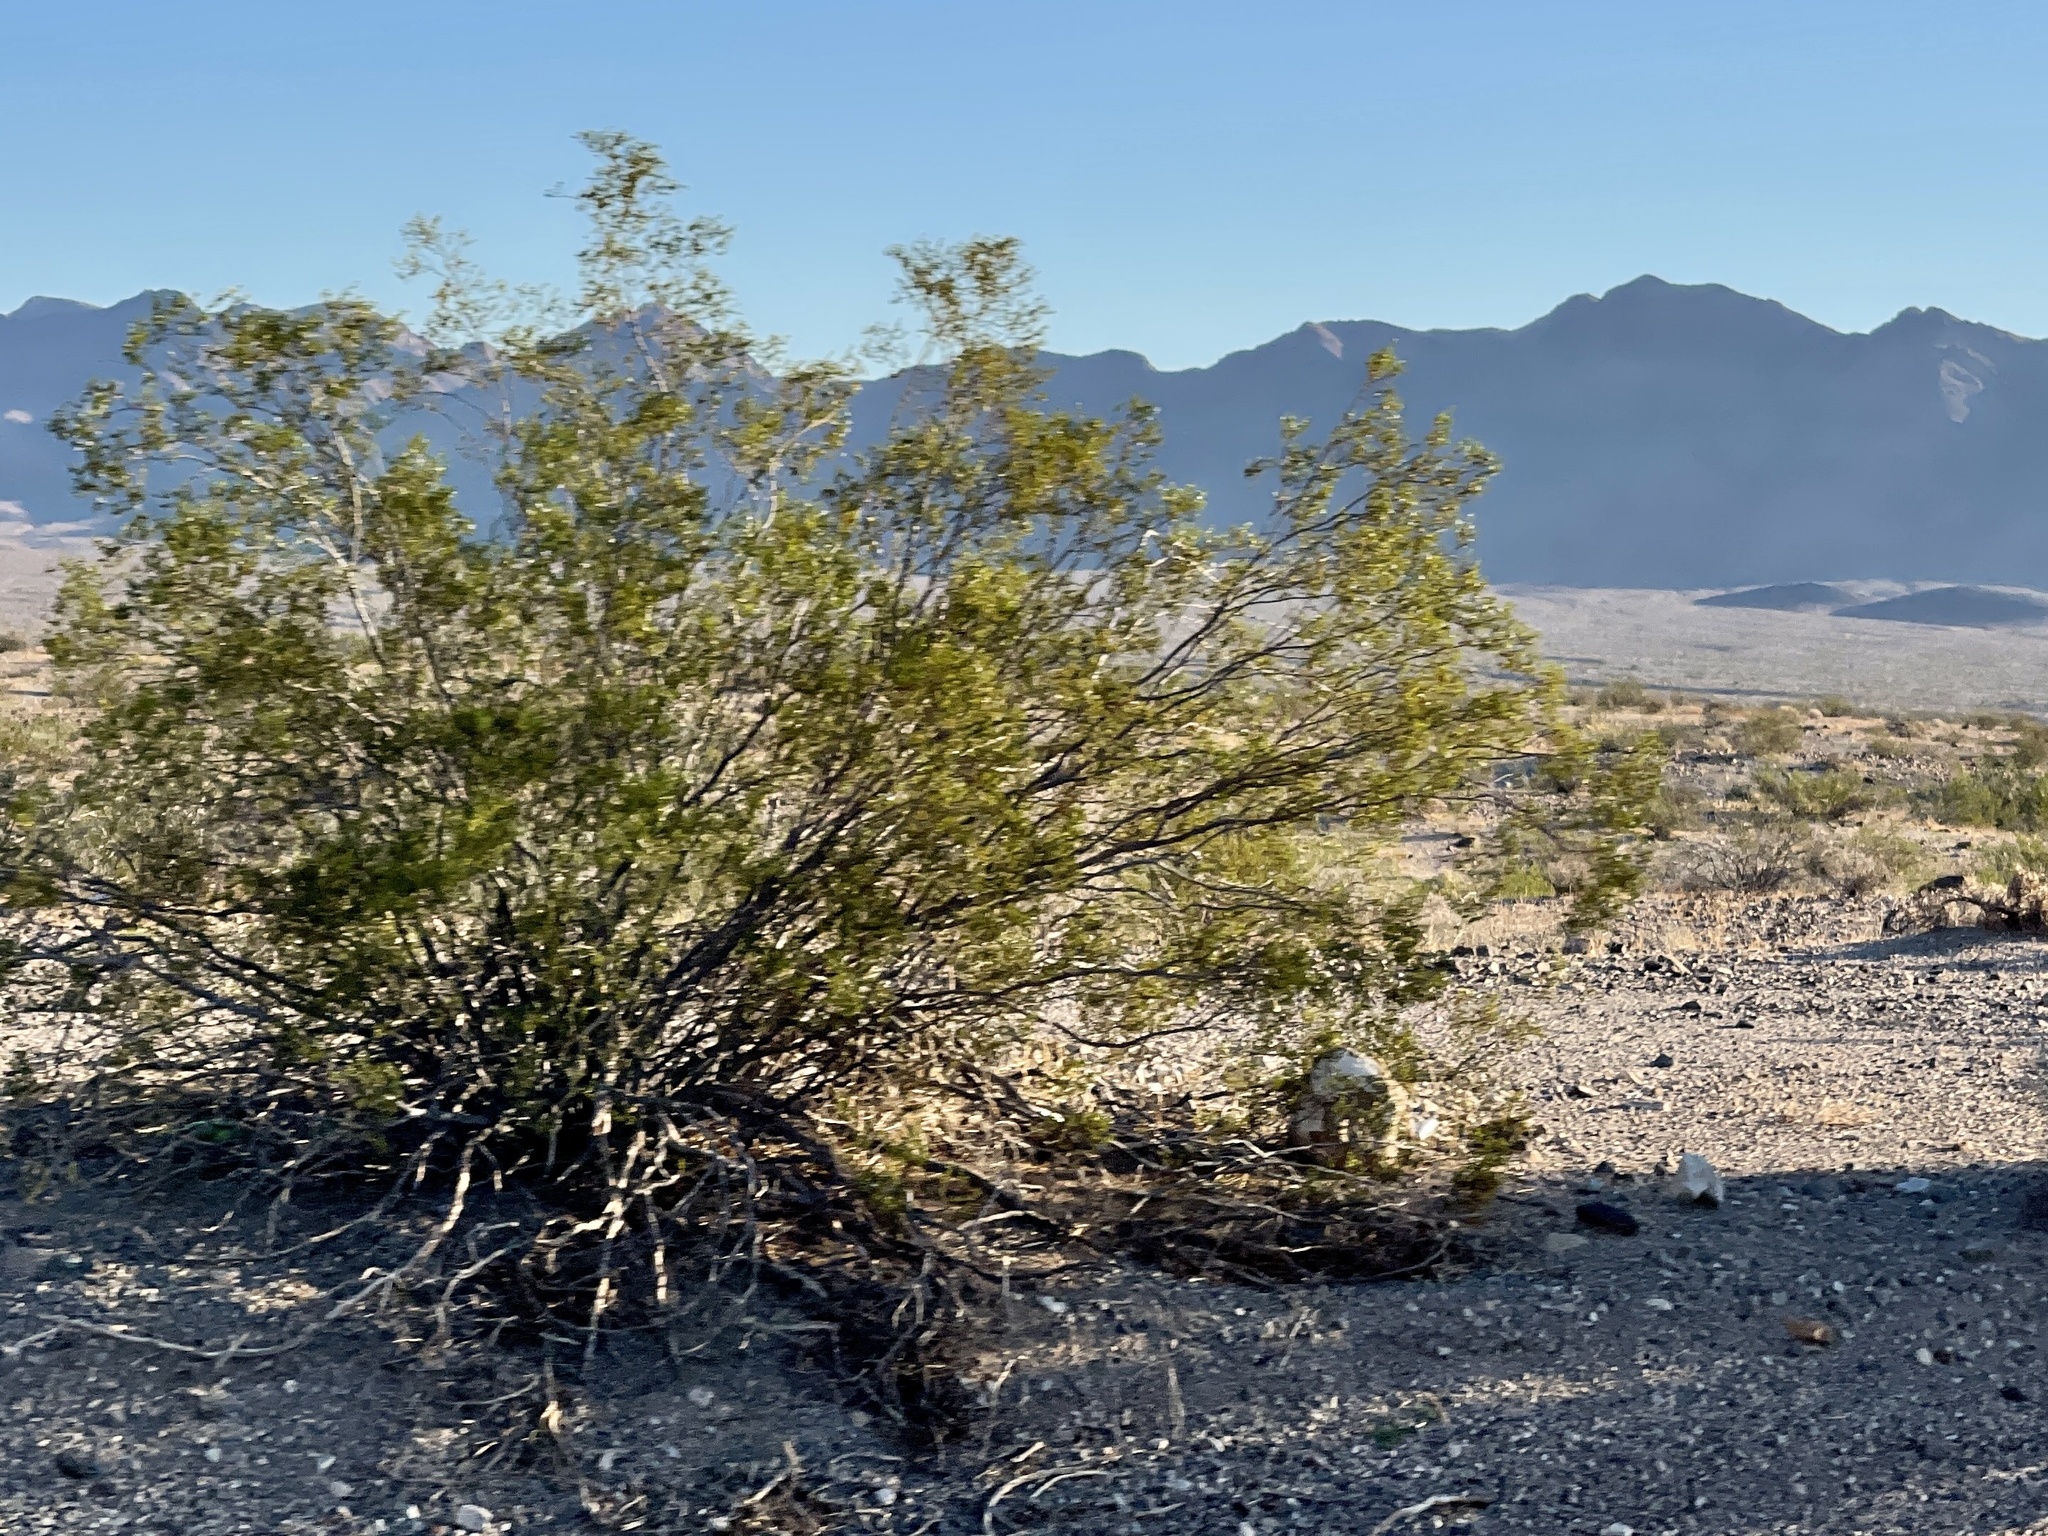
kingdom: Plantae
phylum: Tracheophyta
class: Magnoliopsida
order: Zygophyllales
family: Zygophyllaceae
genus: Larrea
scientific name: Larrea tridentata
